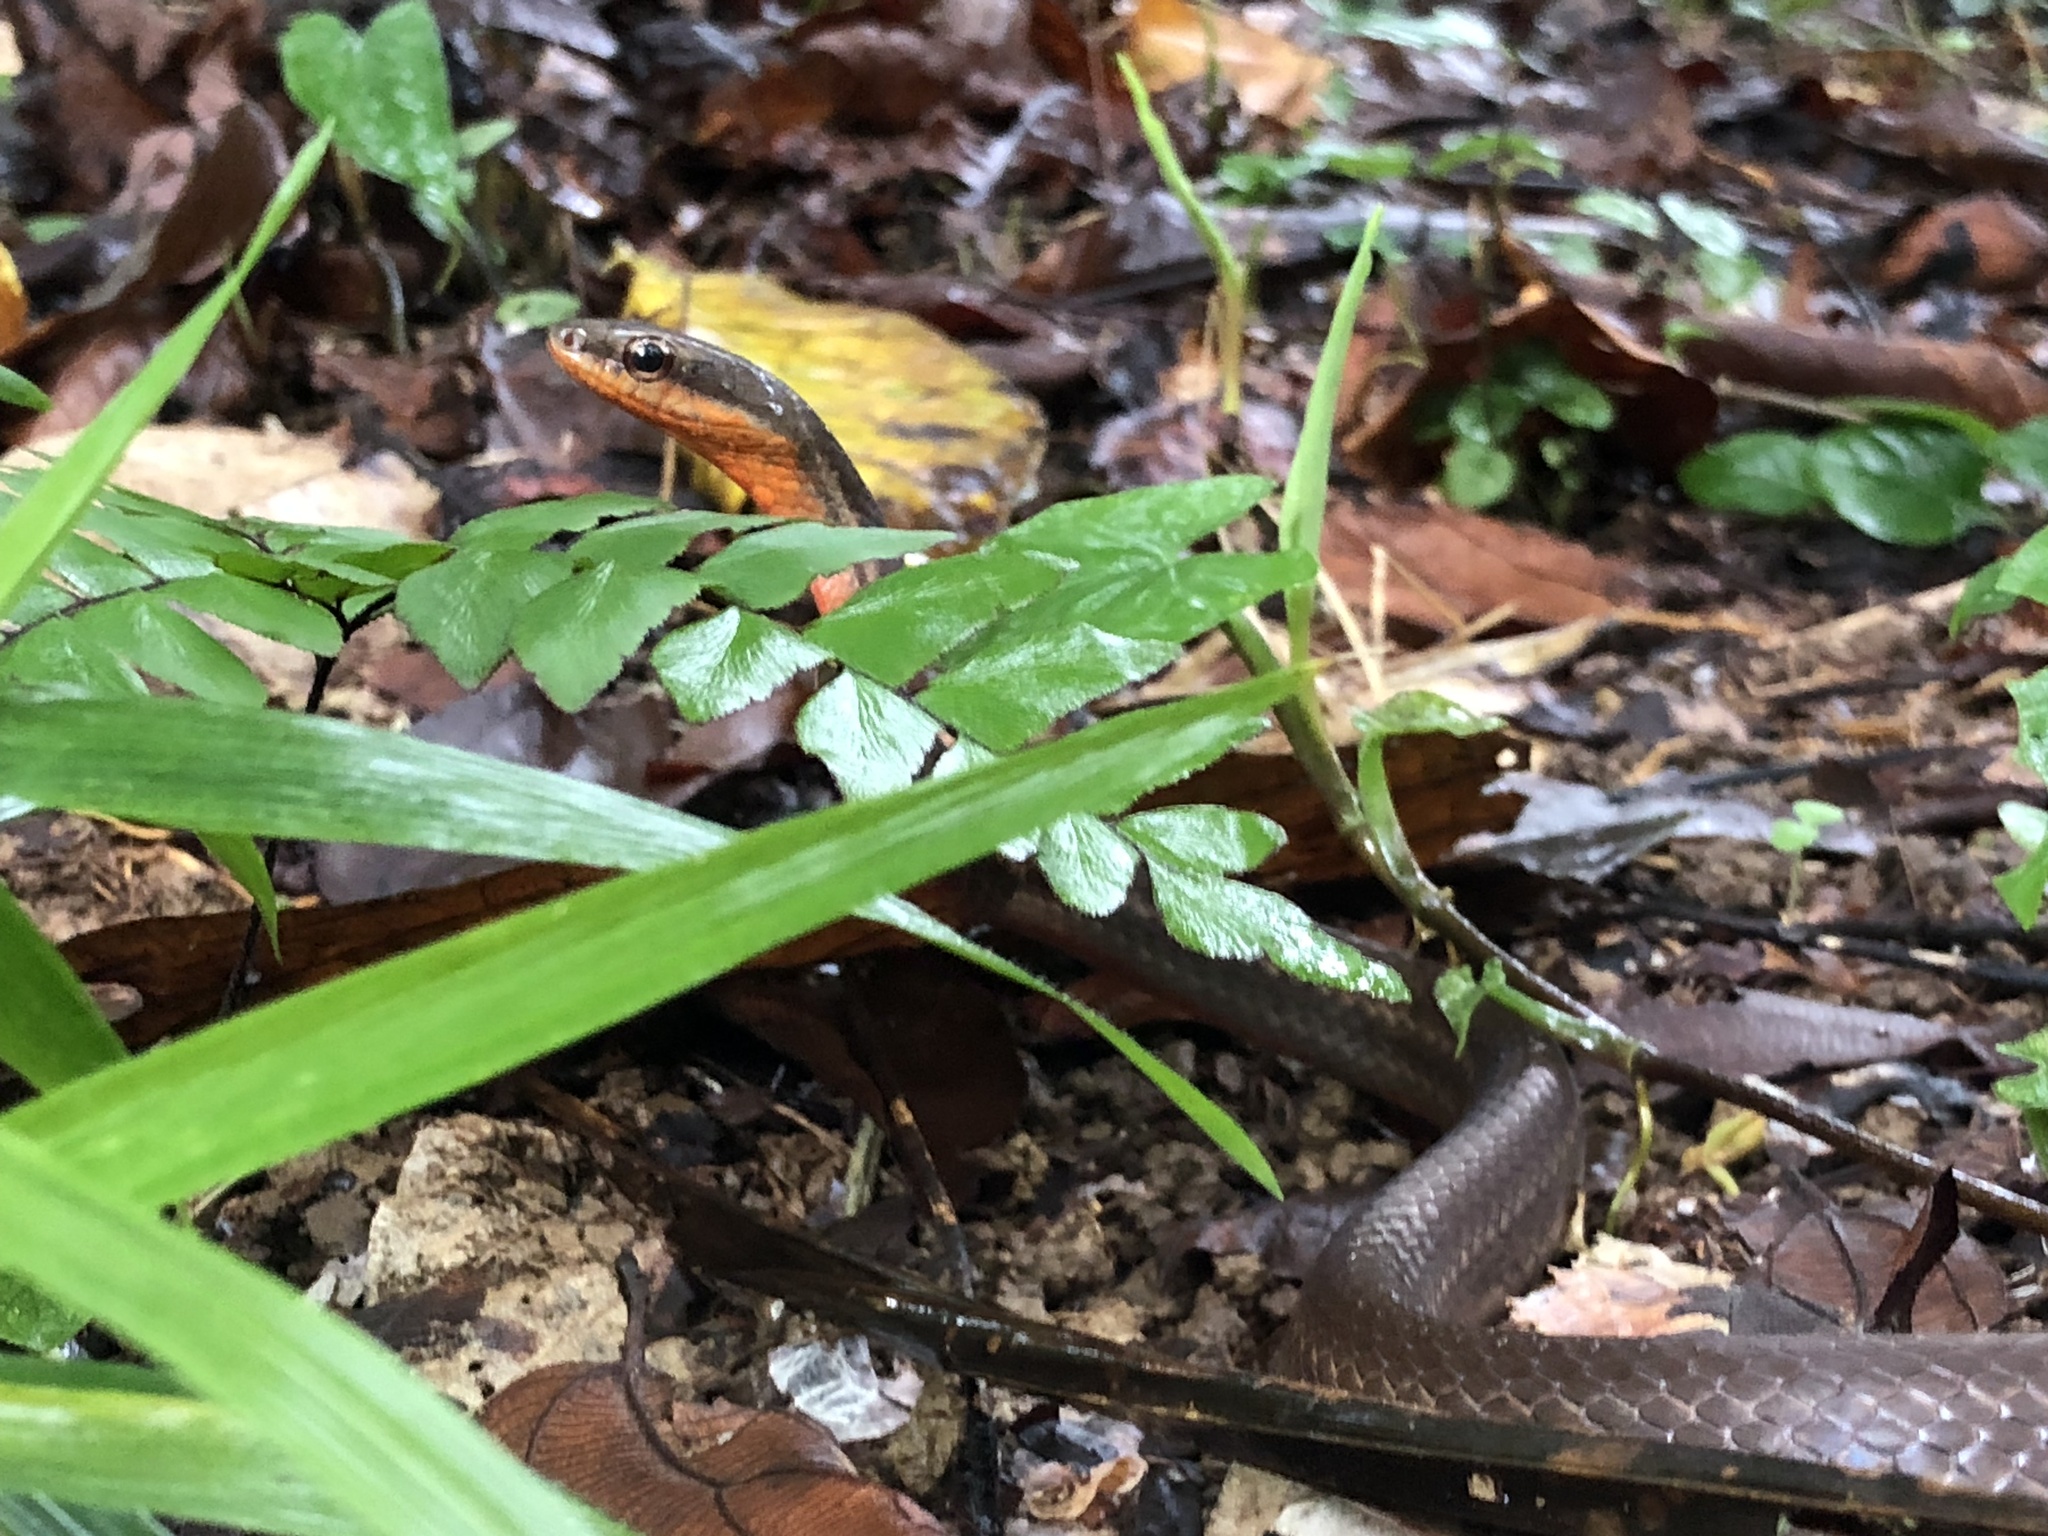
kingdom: Animalia
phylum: Chordata
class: Squamata
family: Colubridae
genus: Mastigodryas
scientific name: Mastigodryas alternatus
